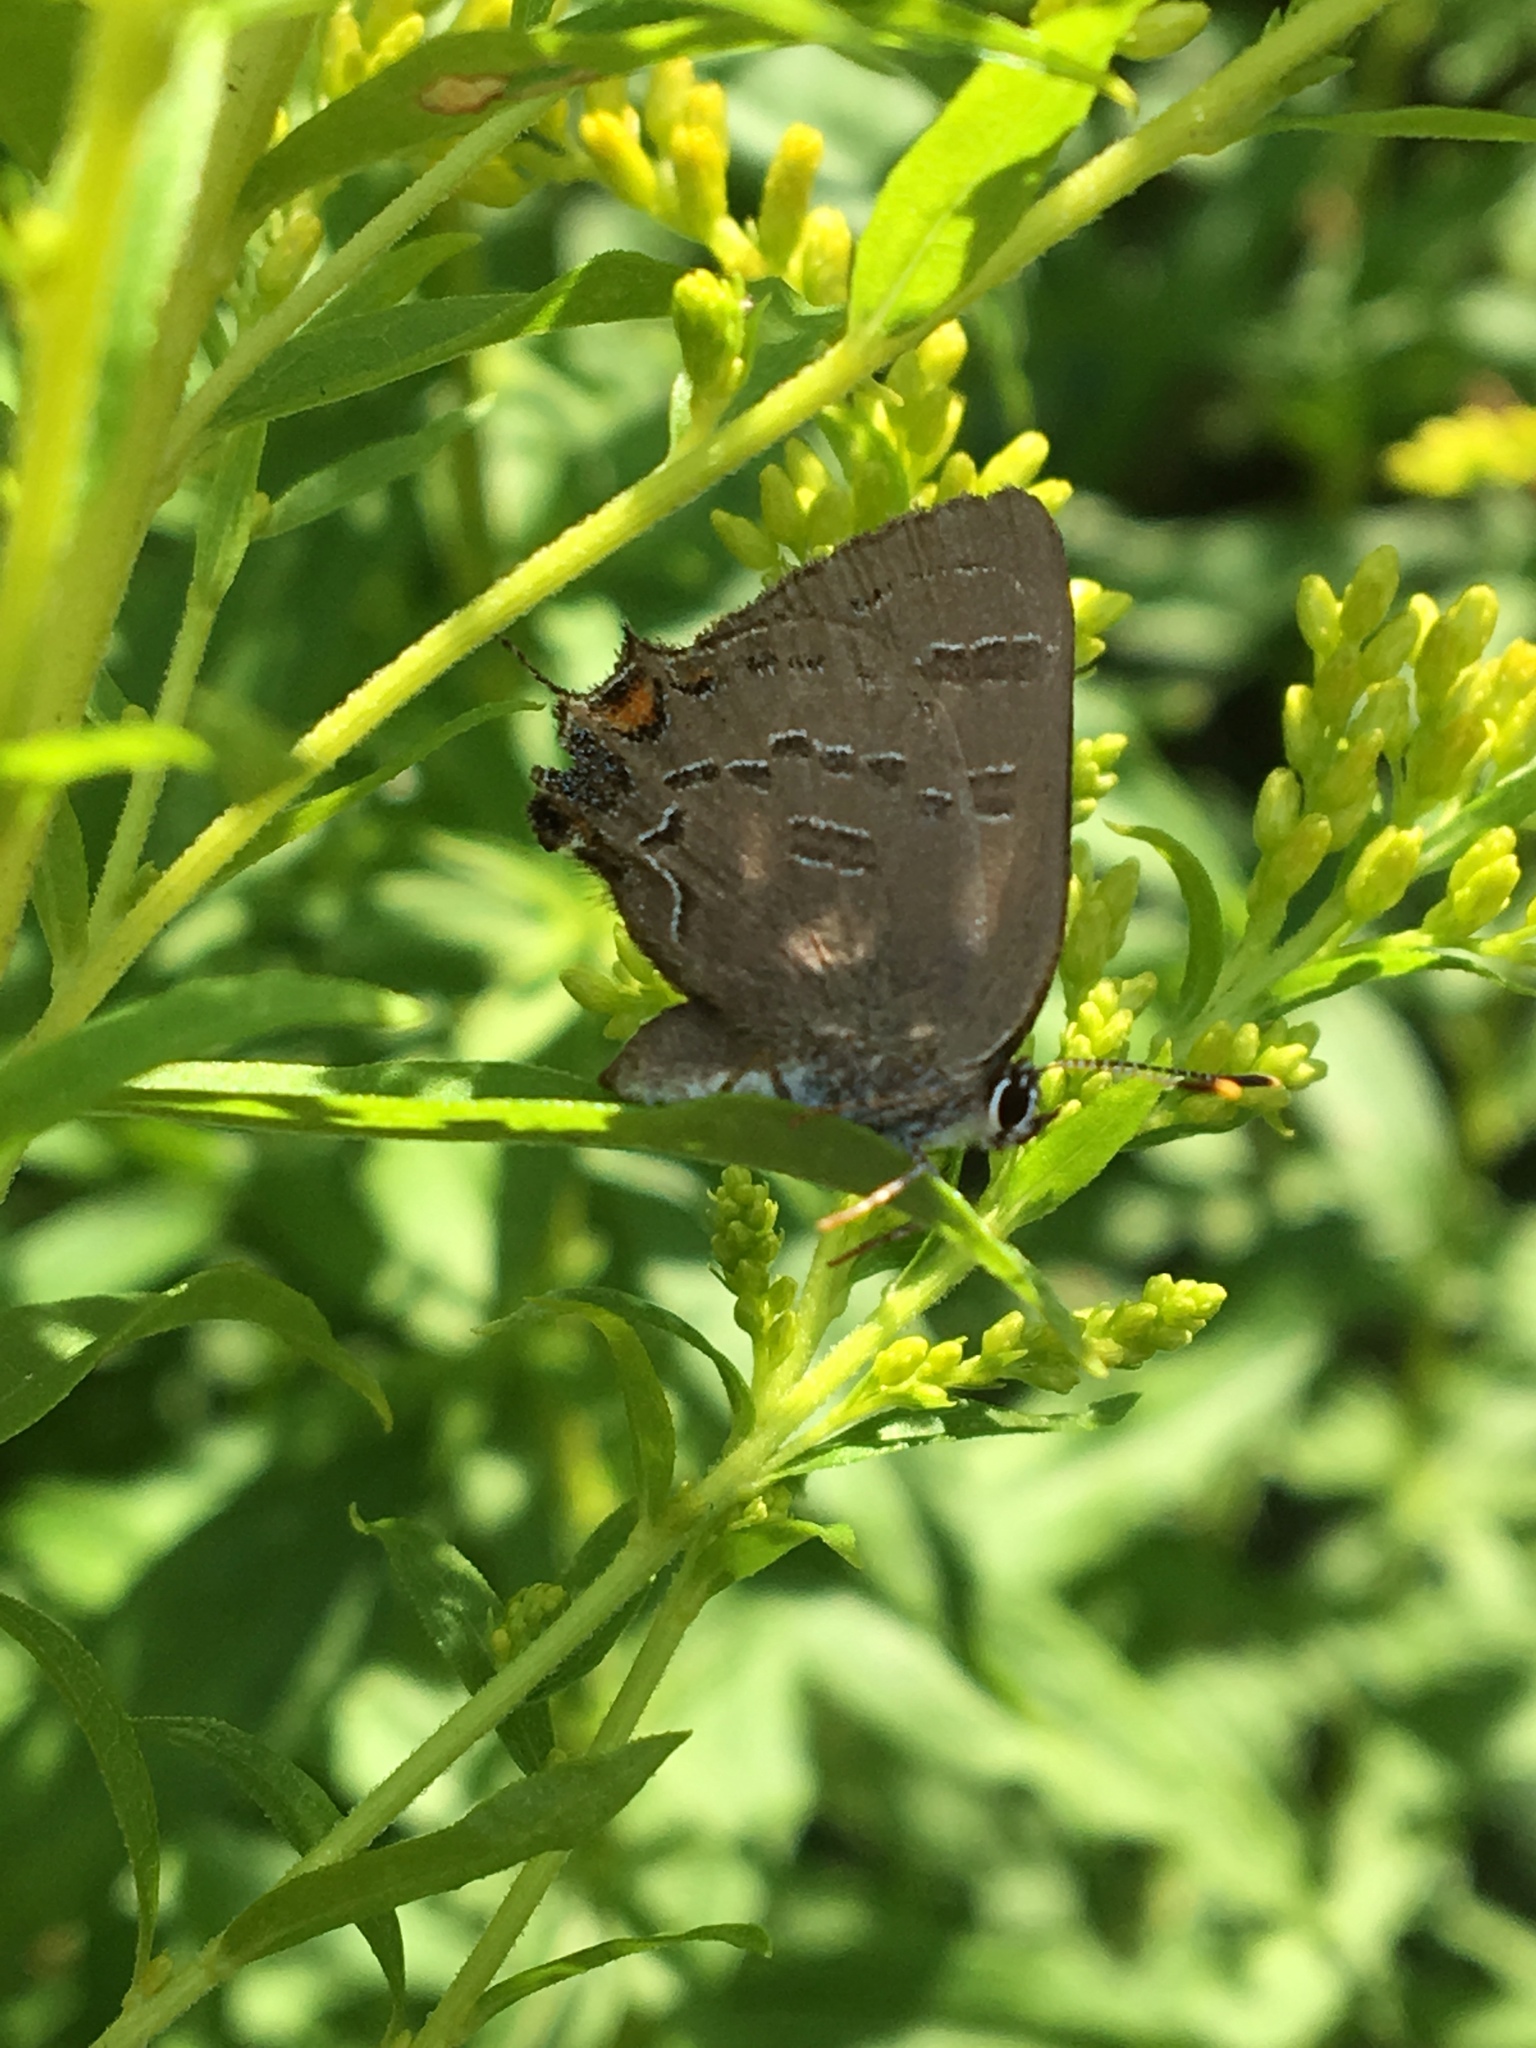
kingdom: Animalia
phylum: Arthropoda
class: Insecta
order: Lepidoptera
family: Lycaenidae
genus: Satyrium
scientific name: Satyrium calanus
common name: Banded hairstreak
